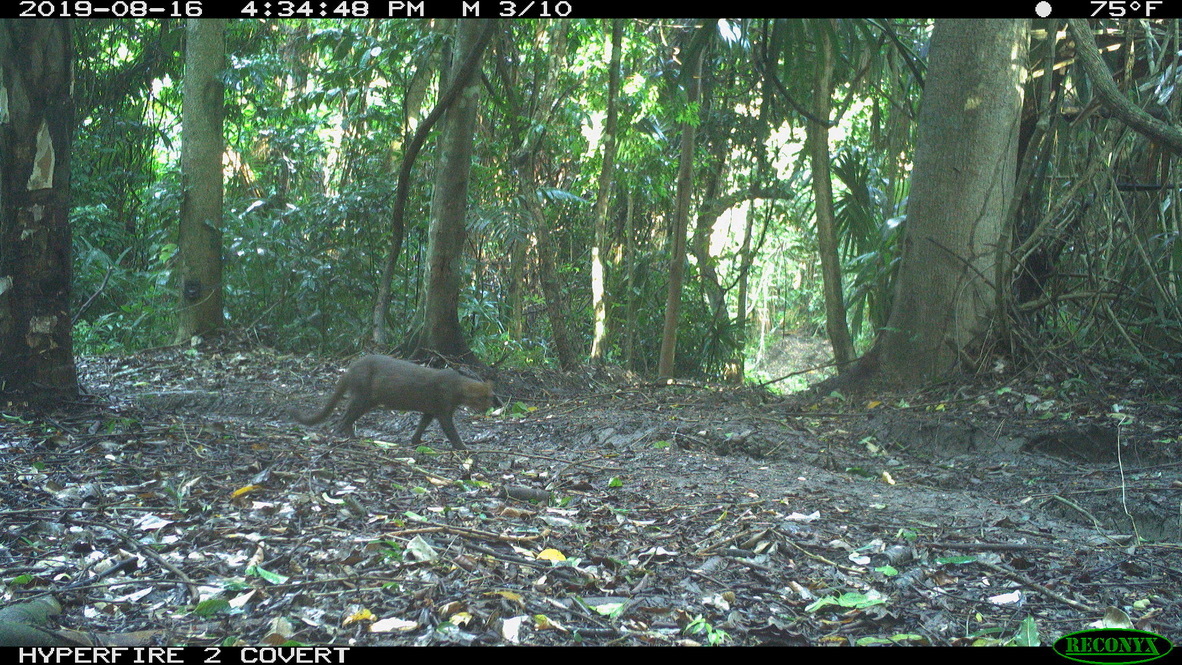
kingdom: Animalia
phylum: Chordata
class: Mammalia
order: Carnivora
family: Felidae
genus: Puma
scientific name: Puma yagouaroundi
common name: Jaguarundi
